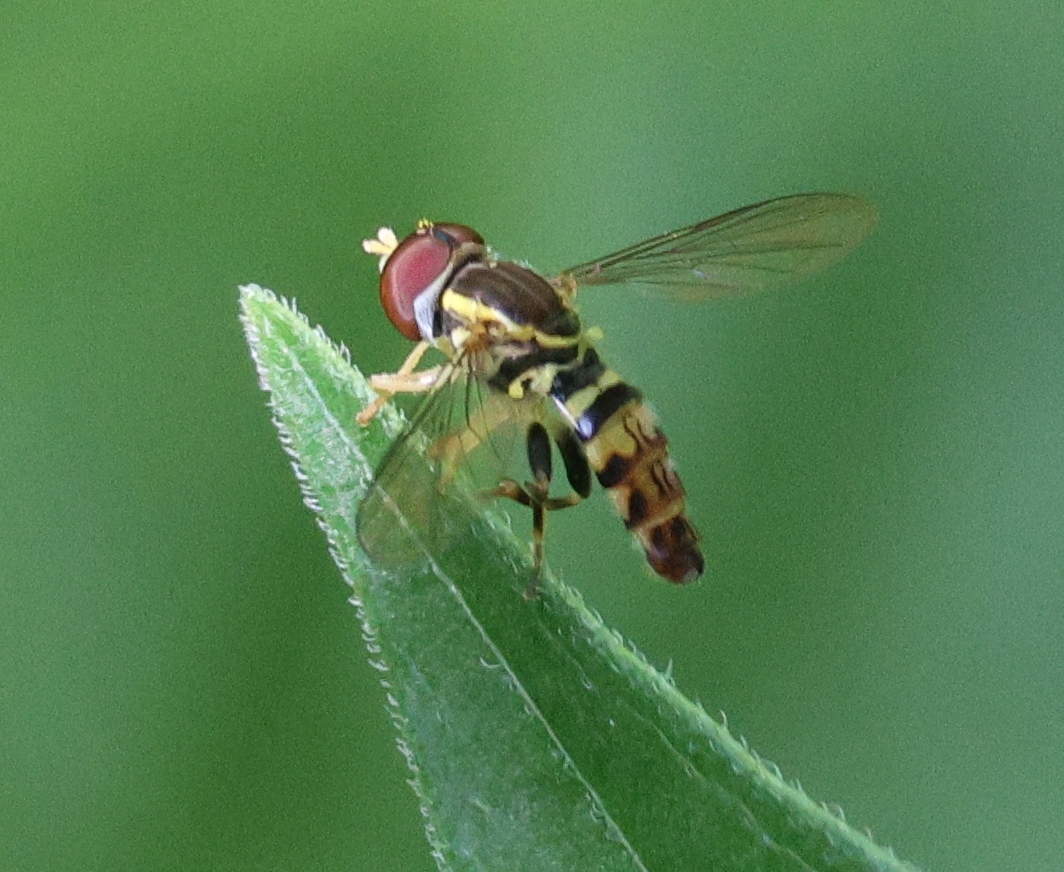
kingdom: Animalia
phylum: Arthropoda
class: Insecta
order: Diptera
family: Syrphidae
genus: Toxomerus
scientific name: Toxomerus geminatus
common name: Eastern calligrapher
